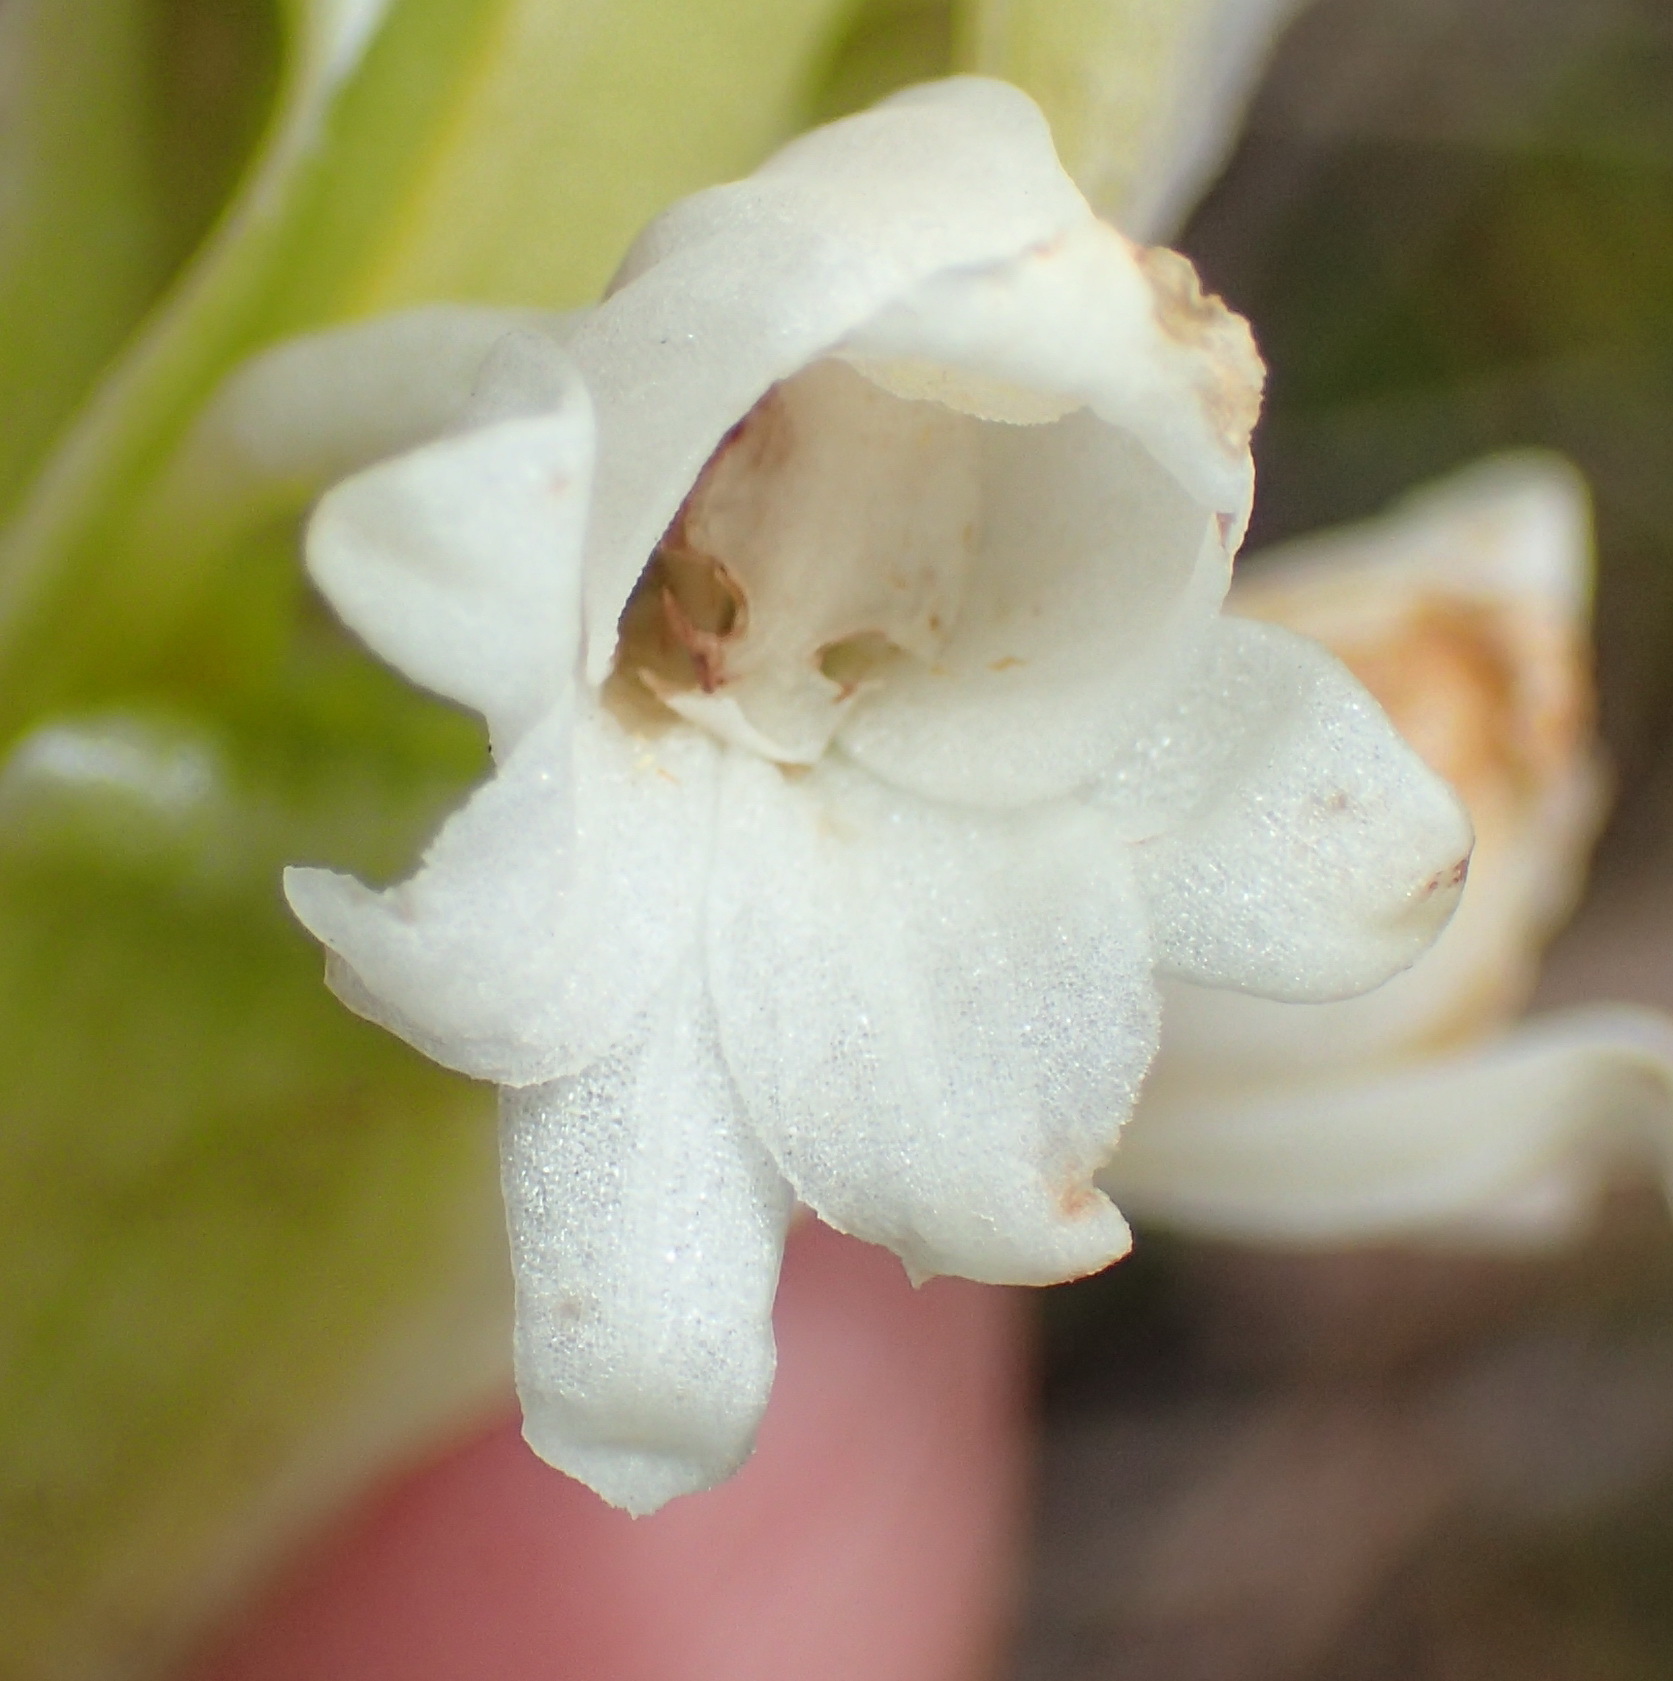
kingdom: Plantae
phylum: Tracheophyta
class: Liliopsida
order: Asparagales
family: Orchidaceae
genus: Satyrium
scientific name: Satyrium acuminatum
